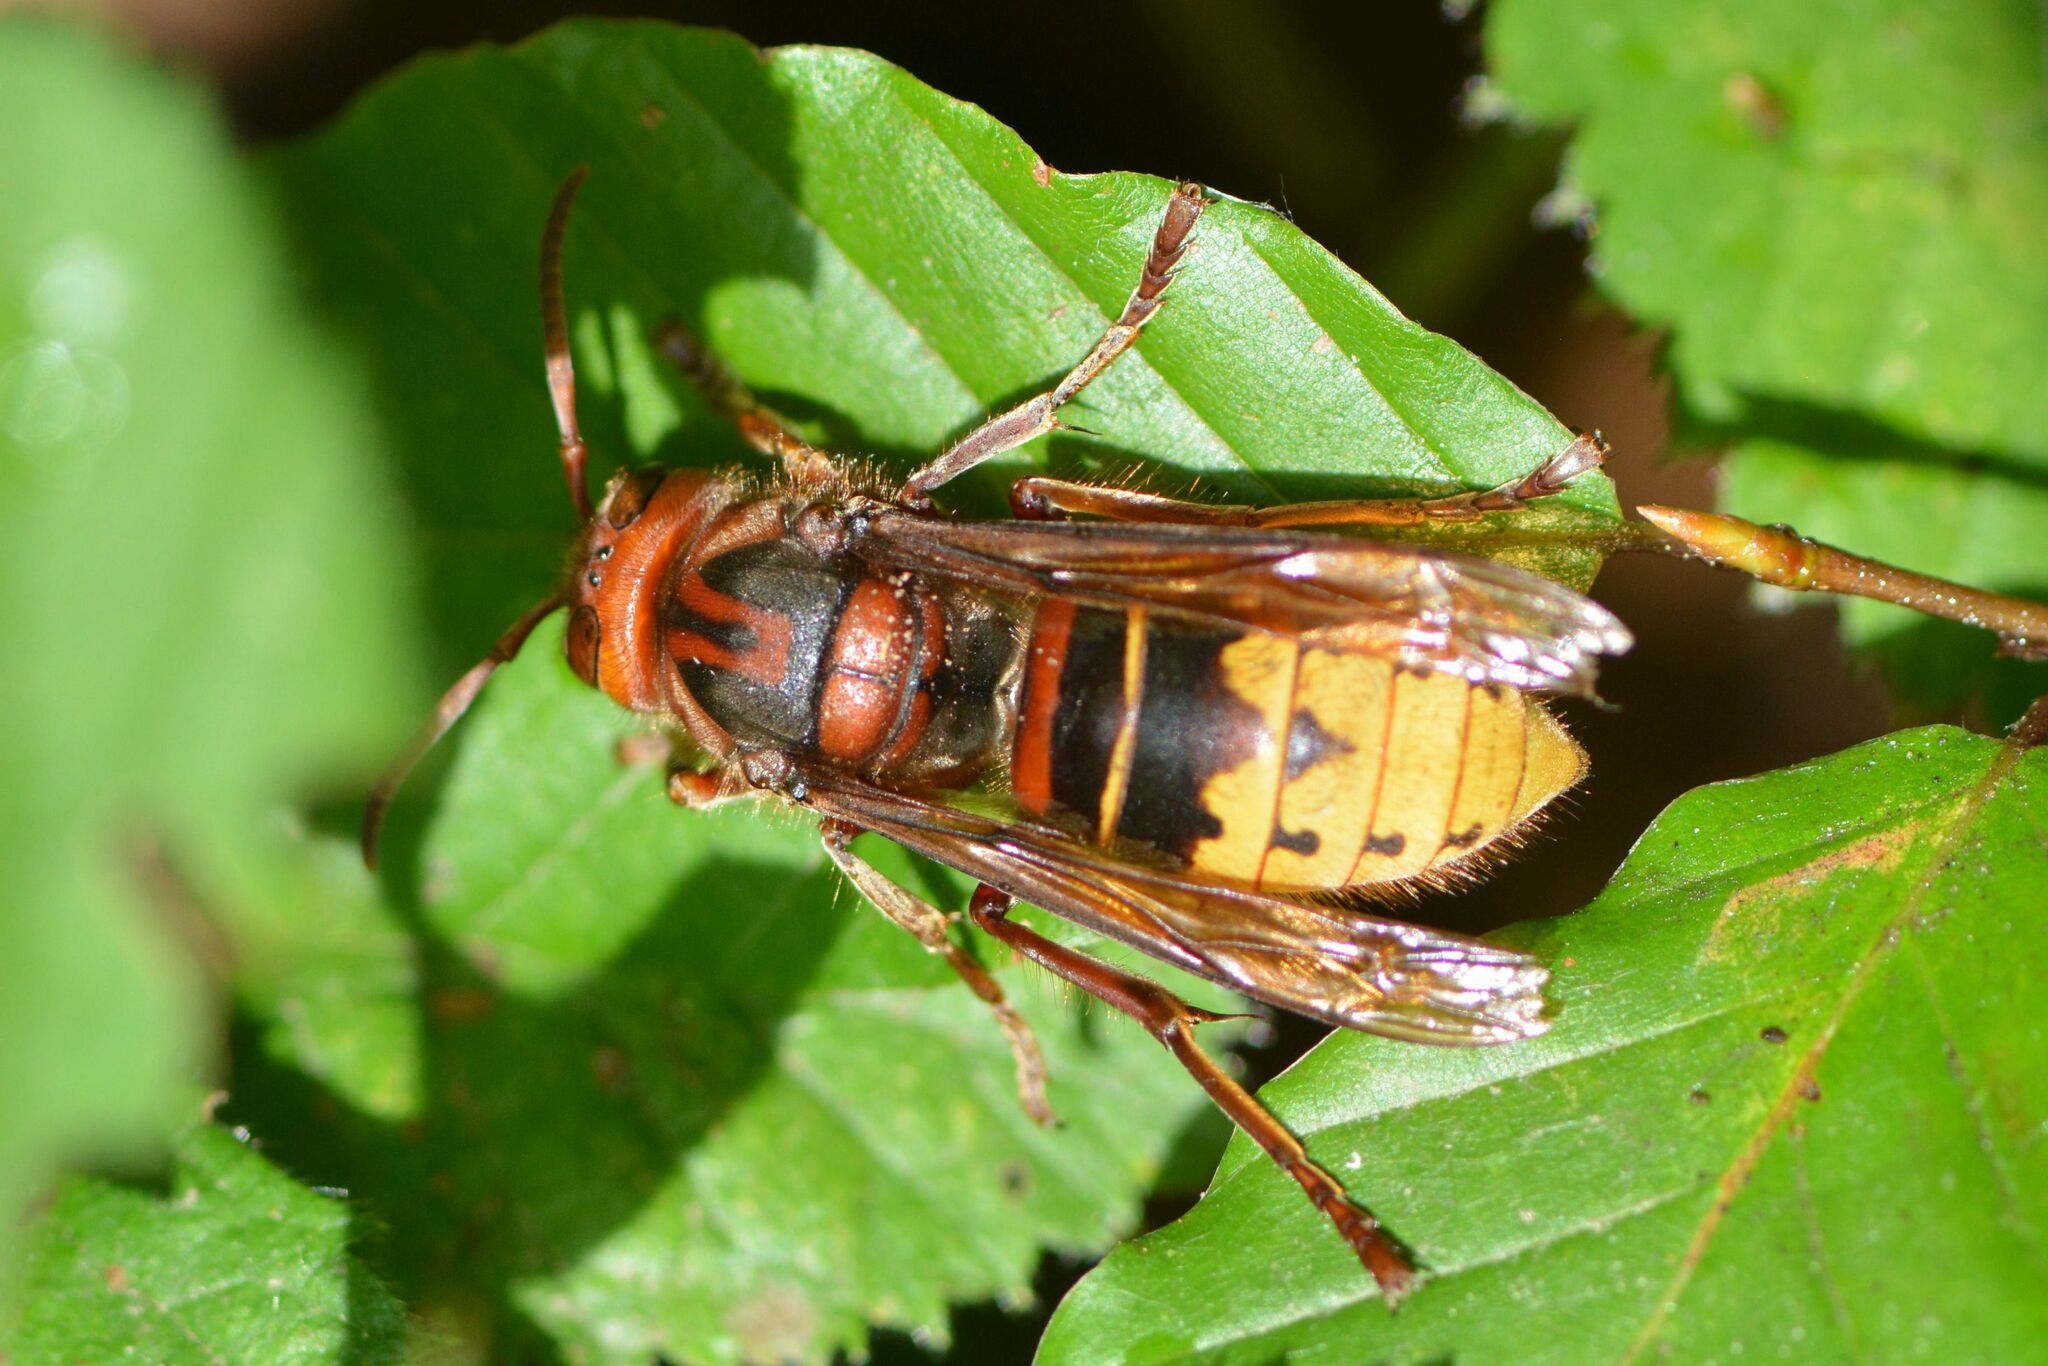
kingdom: Animalia
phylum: Arthropoda
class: Insecta
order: Hymenoptera
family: Vespidae
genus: Vespa
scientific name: Vespa crabro
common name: Hornet
